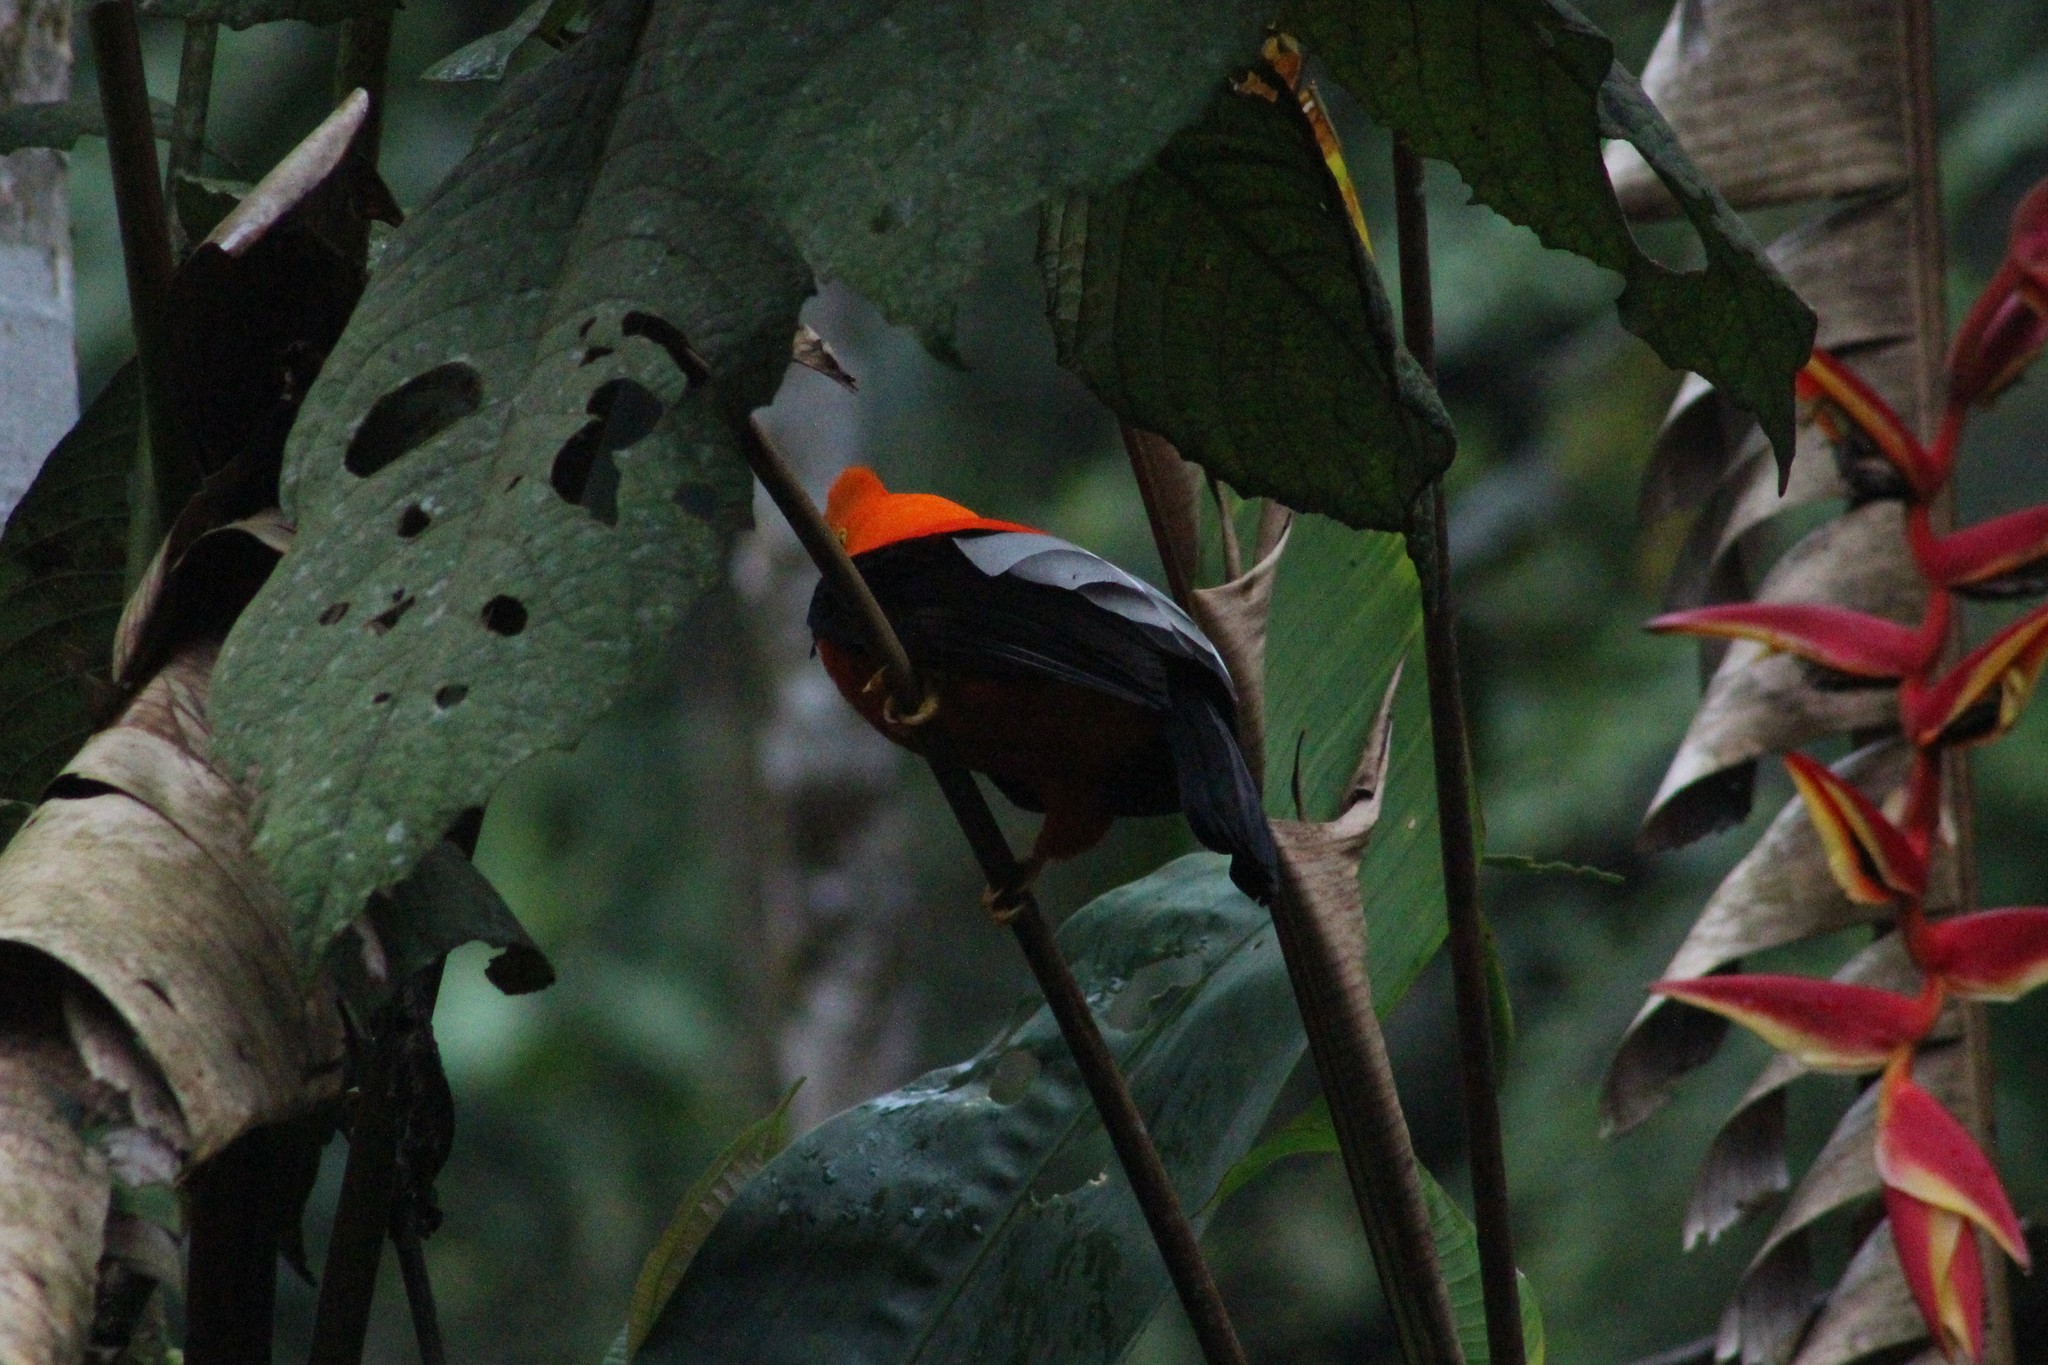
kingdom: Animalia
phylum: Chordata
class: Aves
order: Passeriformes
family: Cotingidae
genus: Rupicola
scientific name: Rupicola peruvianus
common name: Andean cock-of-the-rock
